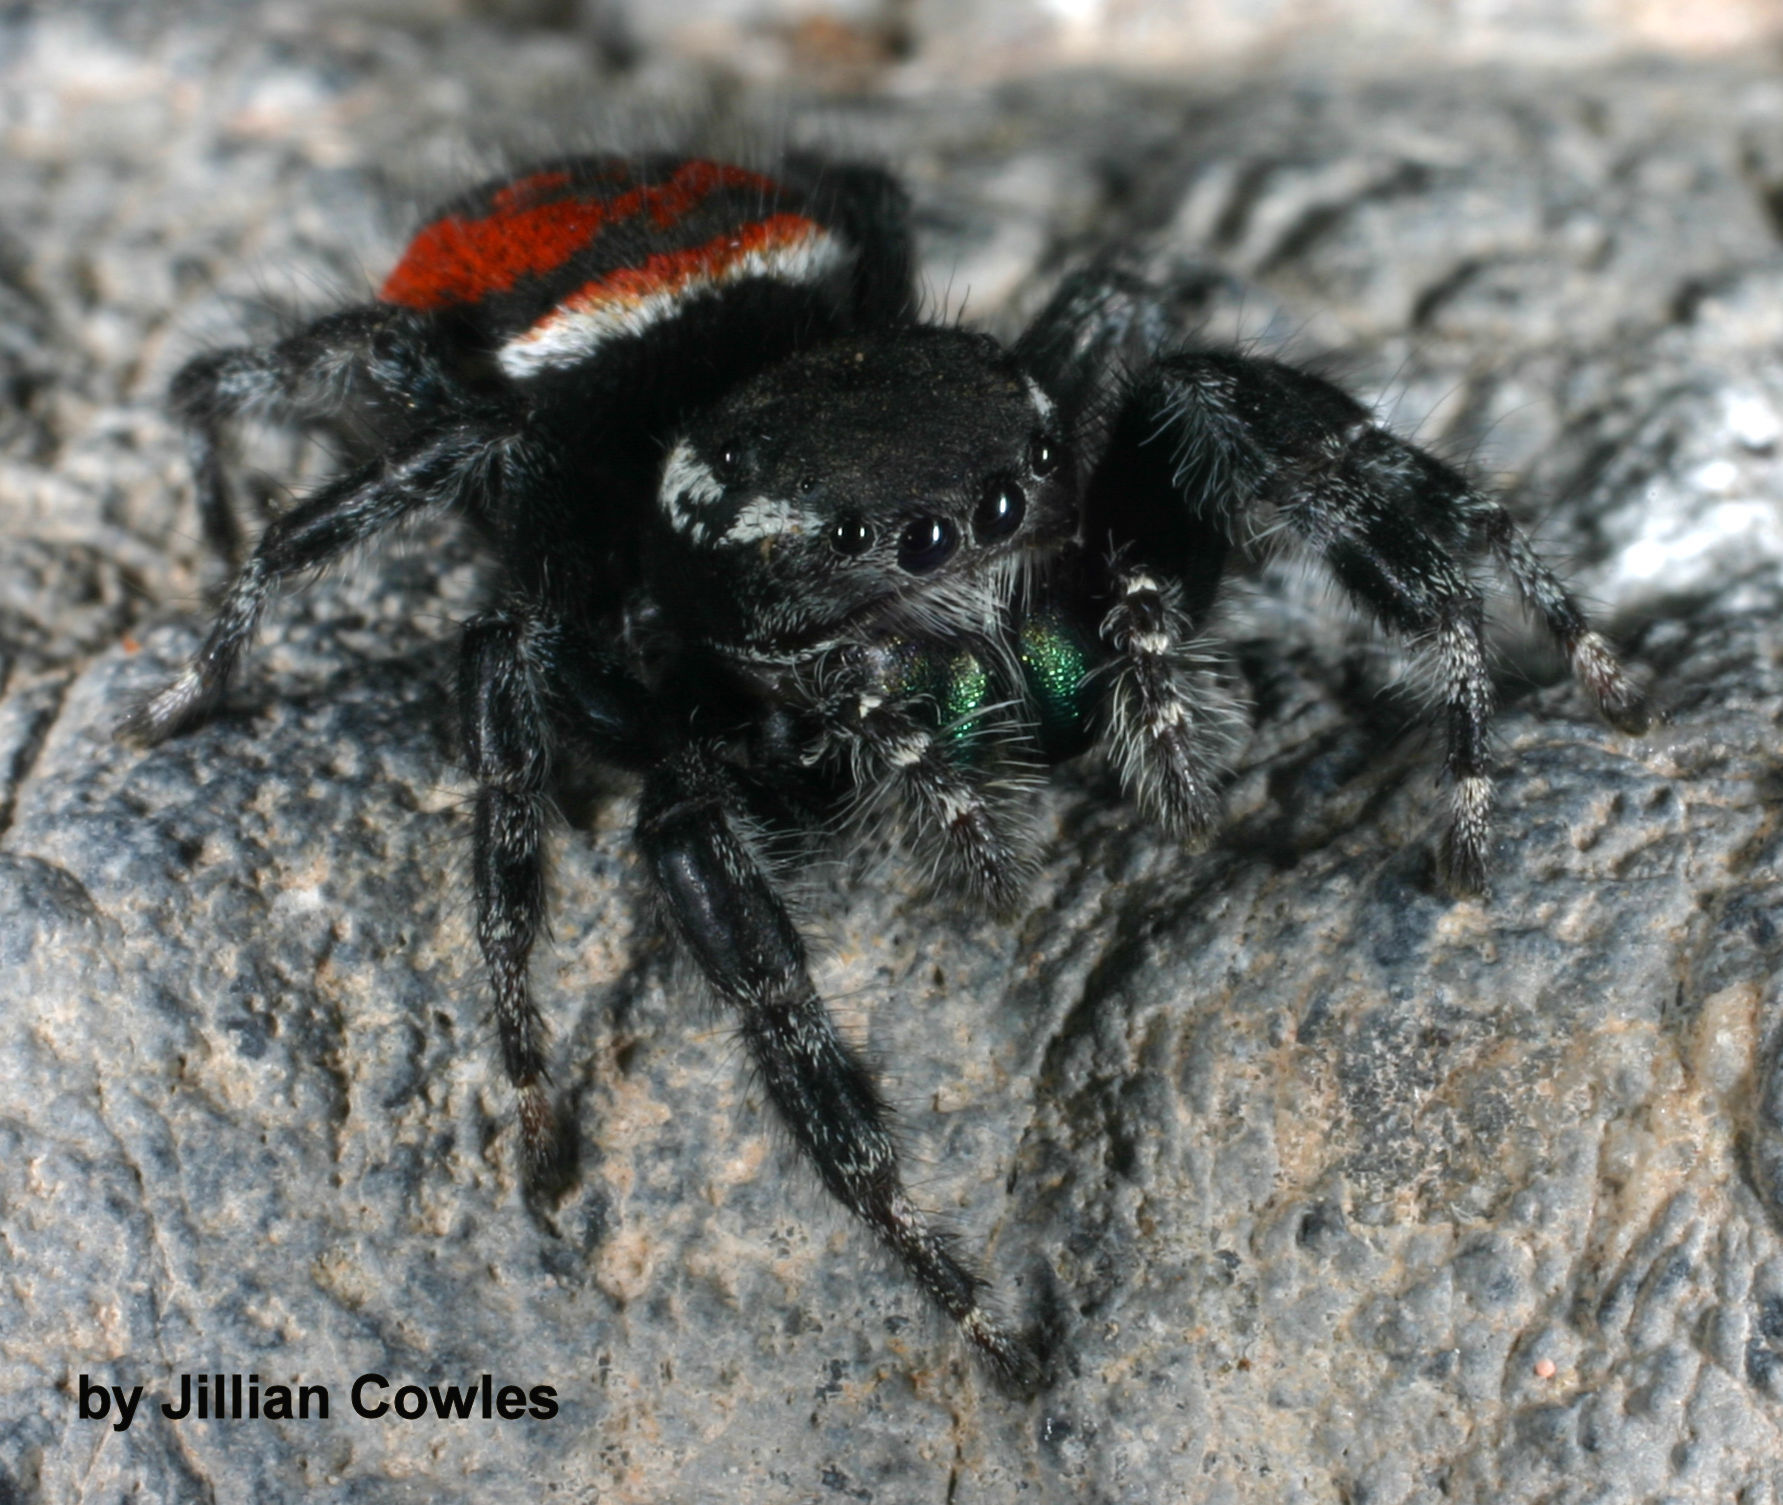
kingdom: Animalia
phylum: Arthropoda
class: Arachnida
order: Araneae
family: Salticidae
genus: Phidippus
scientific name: Phidippus carneus
